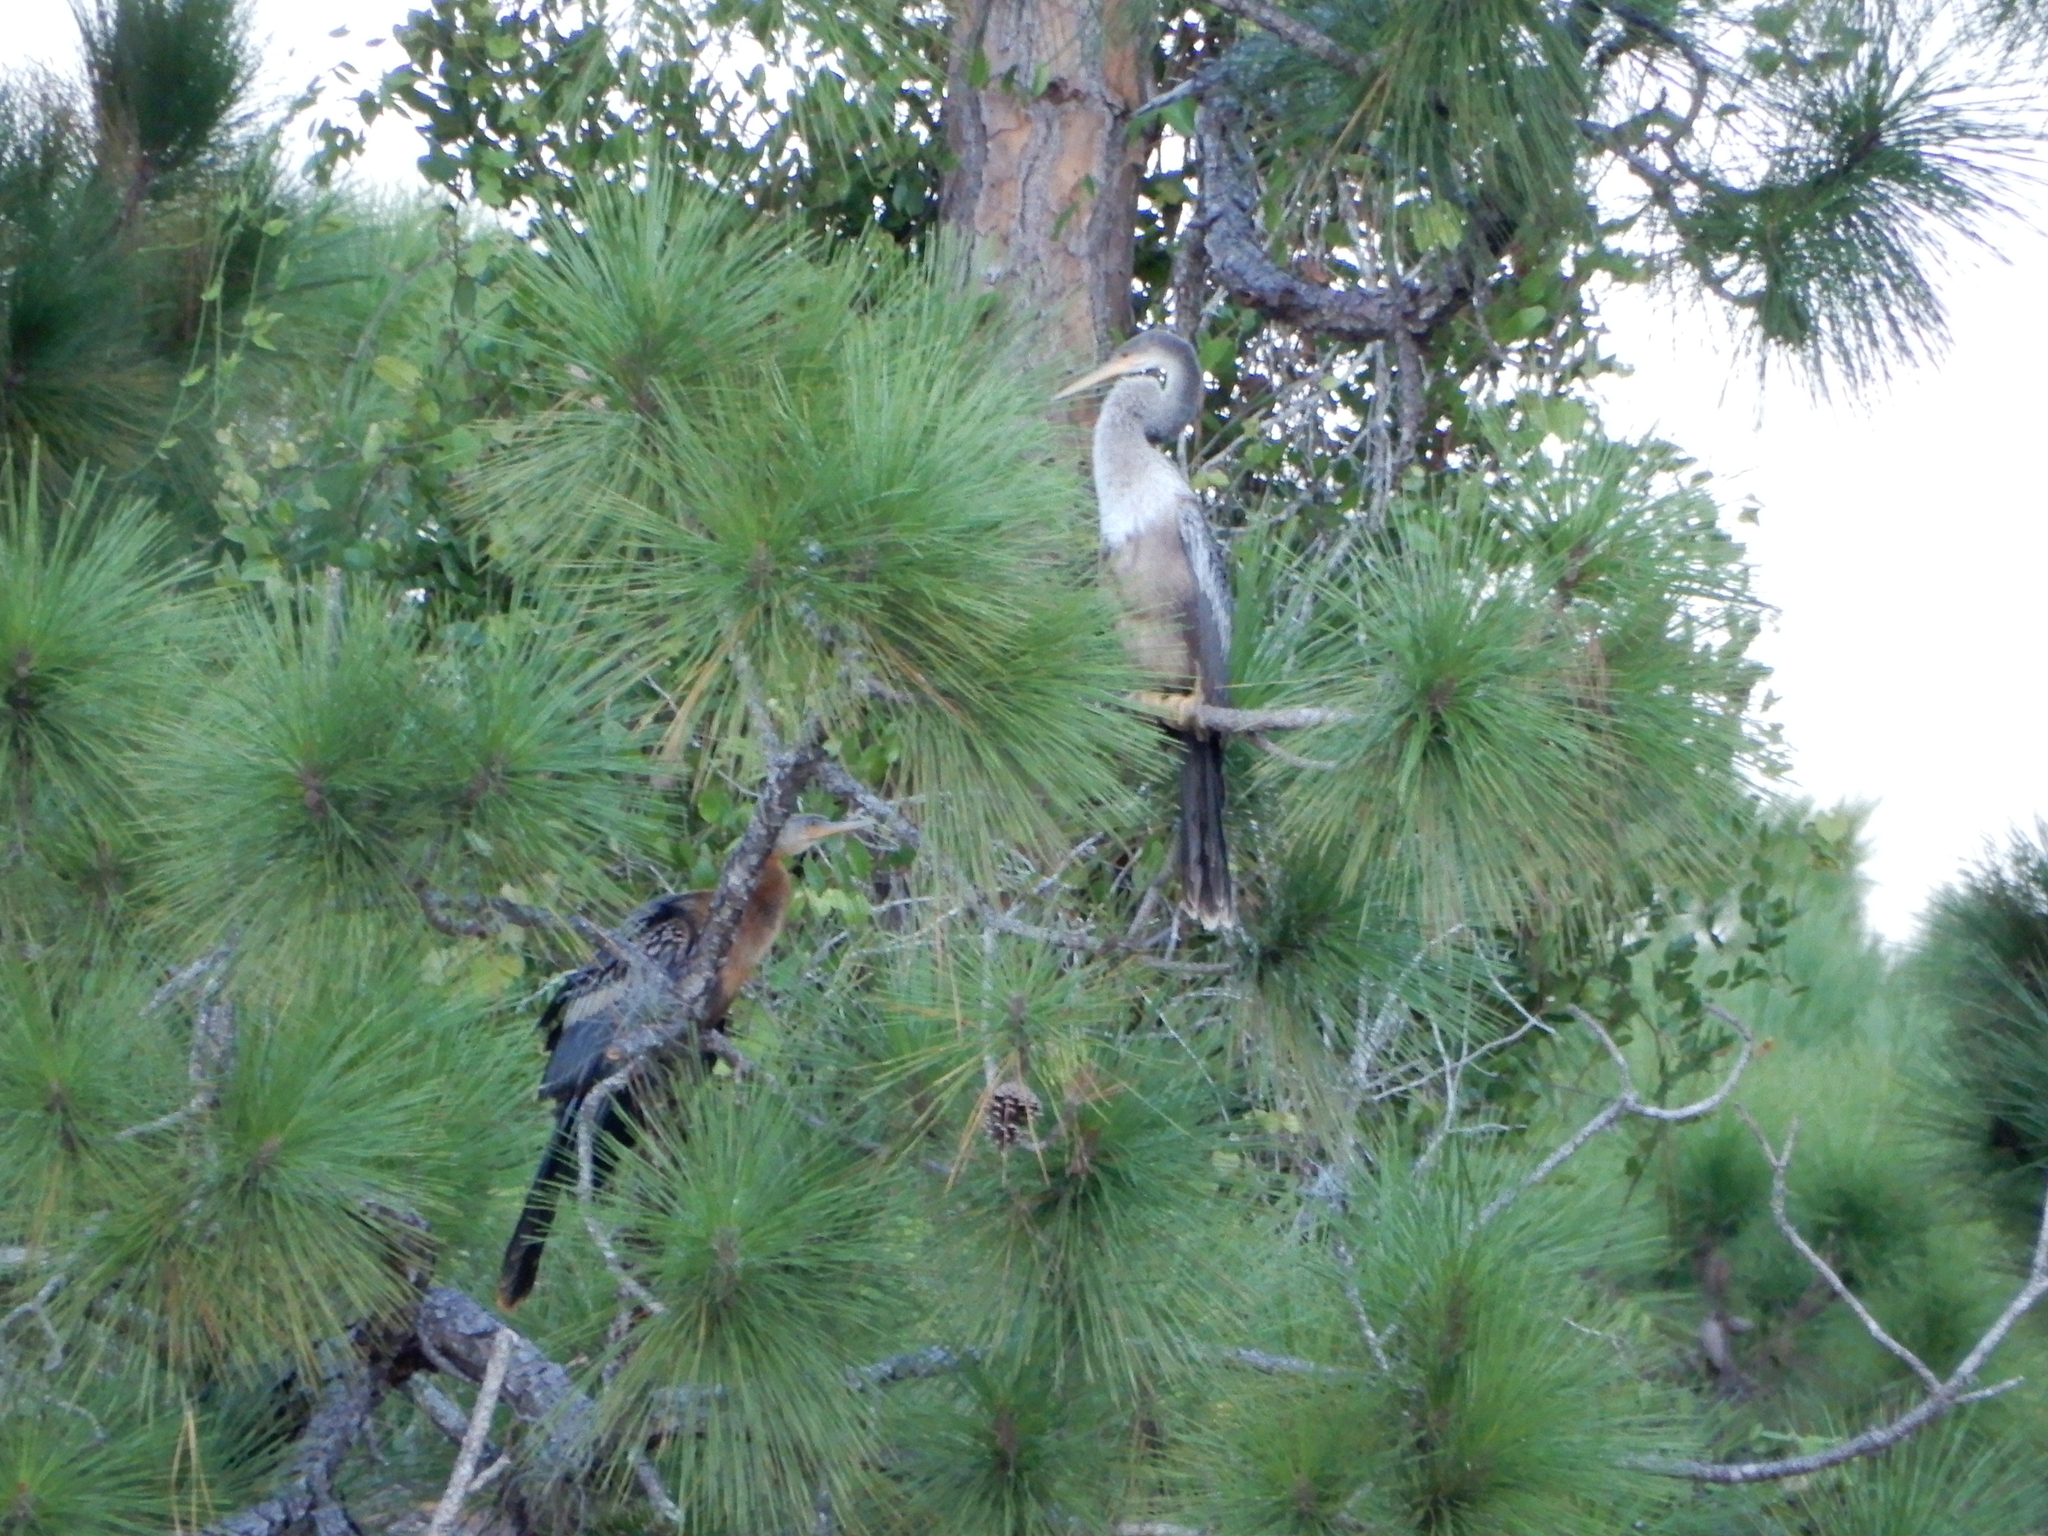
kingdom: Animalia
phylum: Chordata
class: Aves
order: Suliformes
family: Anhingidae
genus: Anhinga
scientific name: Anhinga anhinga
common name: Anhinga
